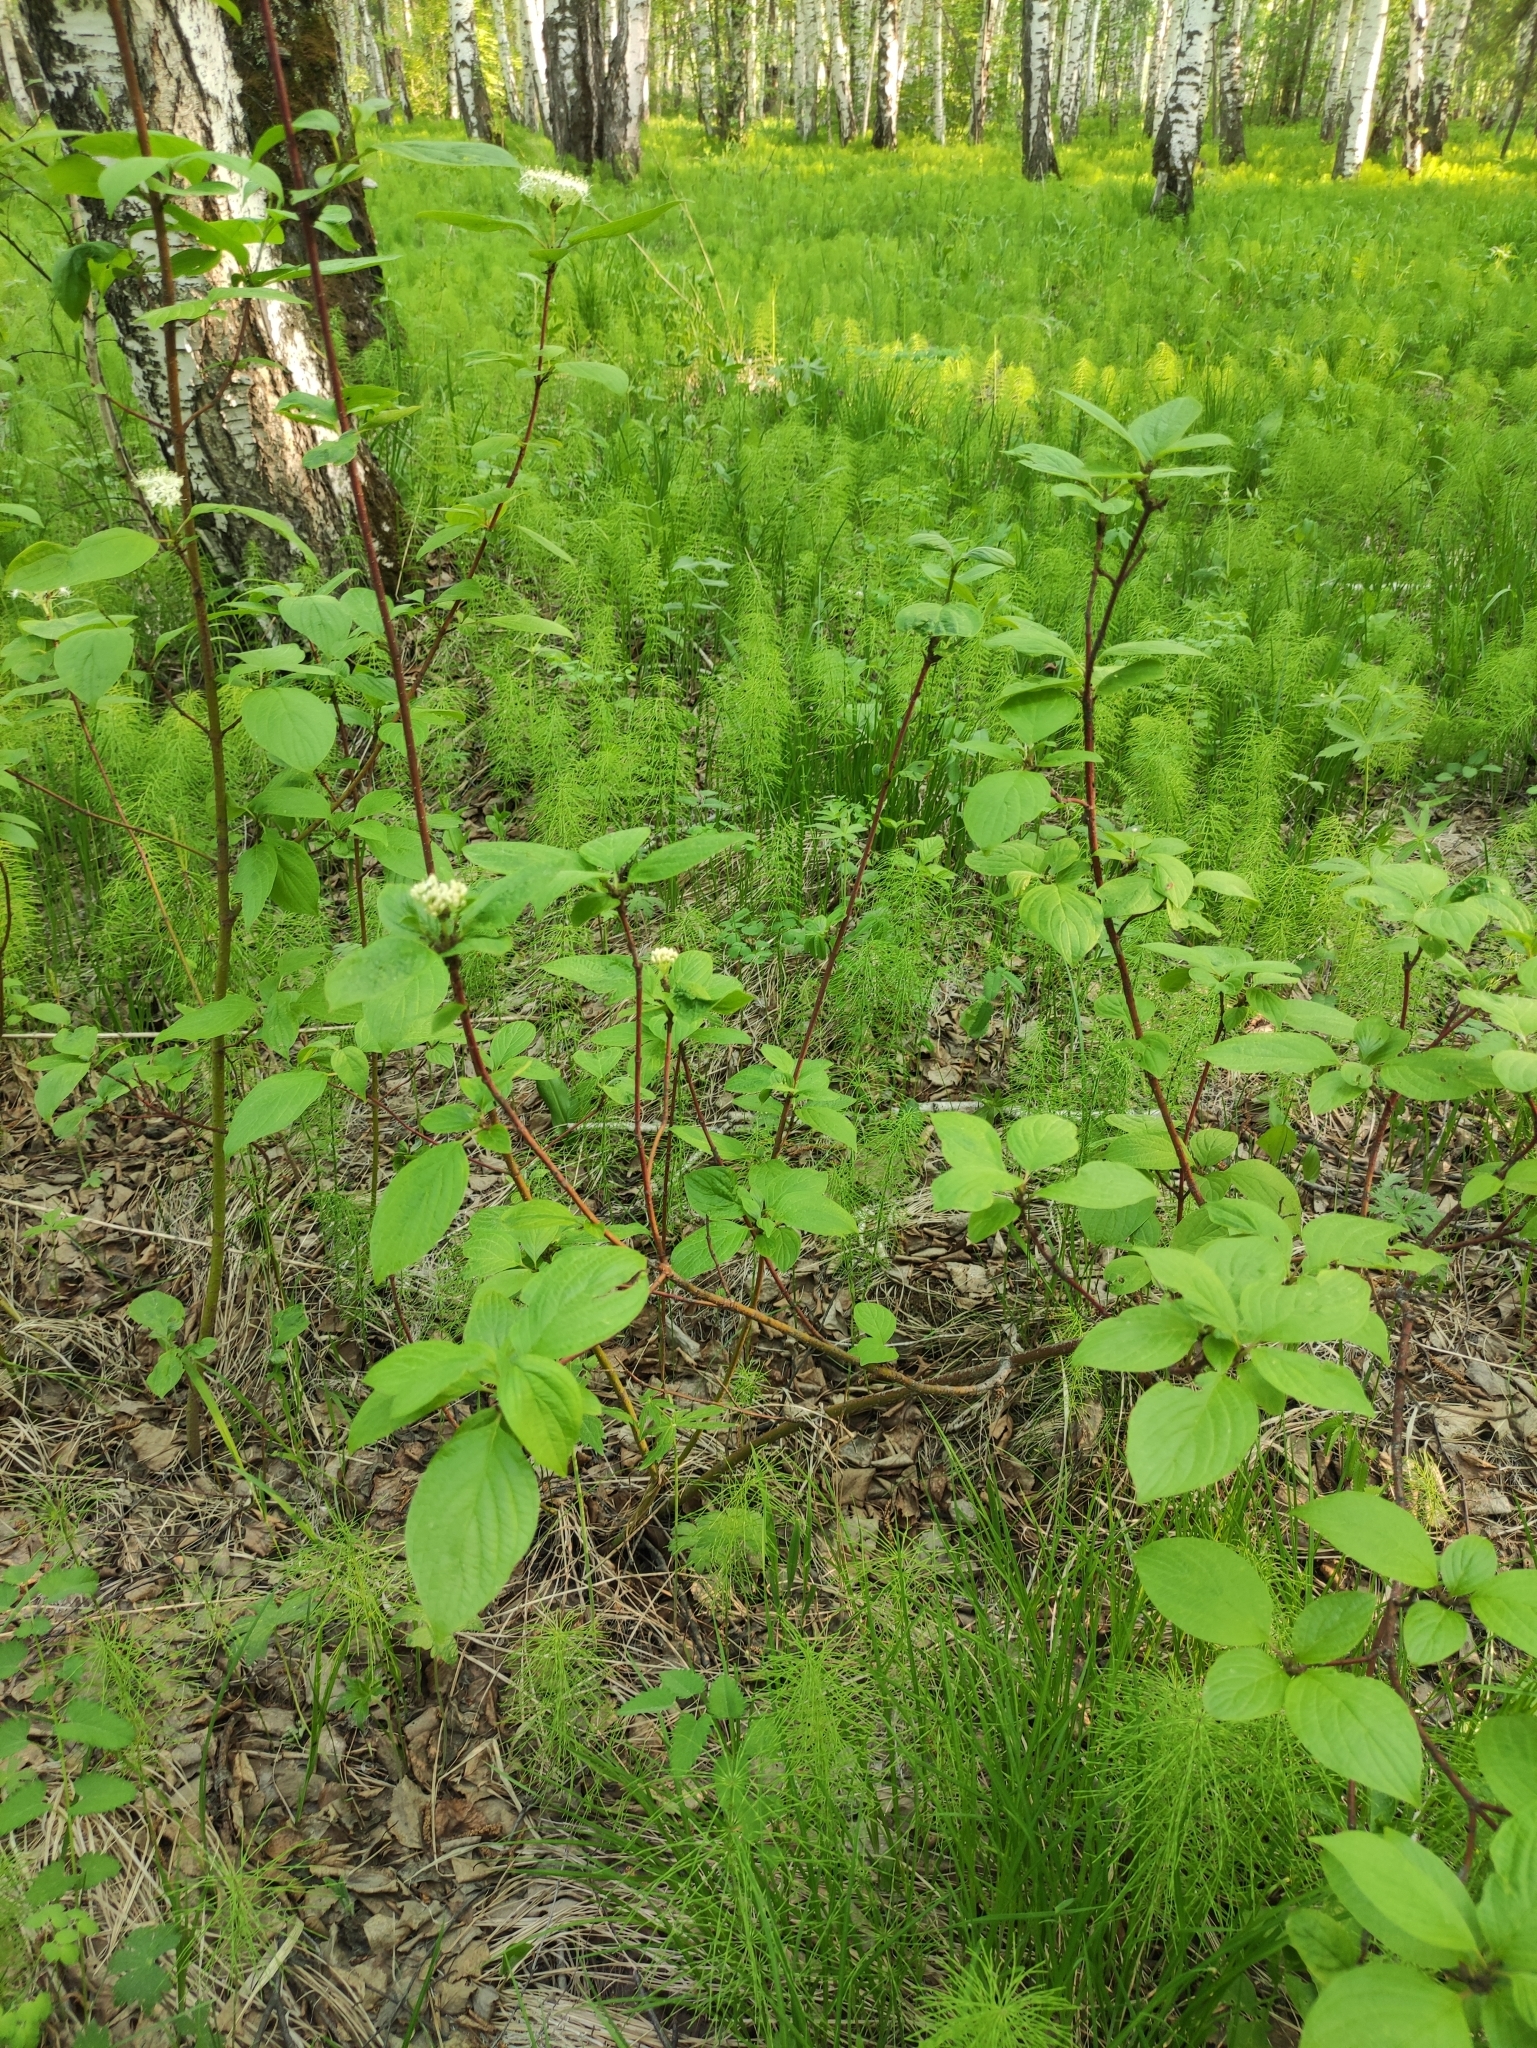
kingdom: Plantae
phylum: Tracheophyta
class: Magnoliopsida
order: Cornales
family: Cornaceae
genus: Cornus
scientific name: Cornus alba
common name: White dogwood
